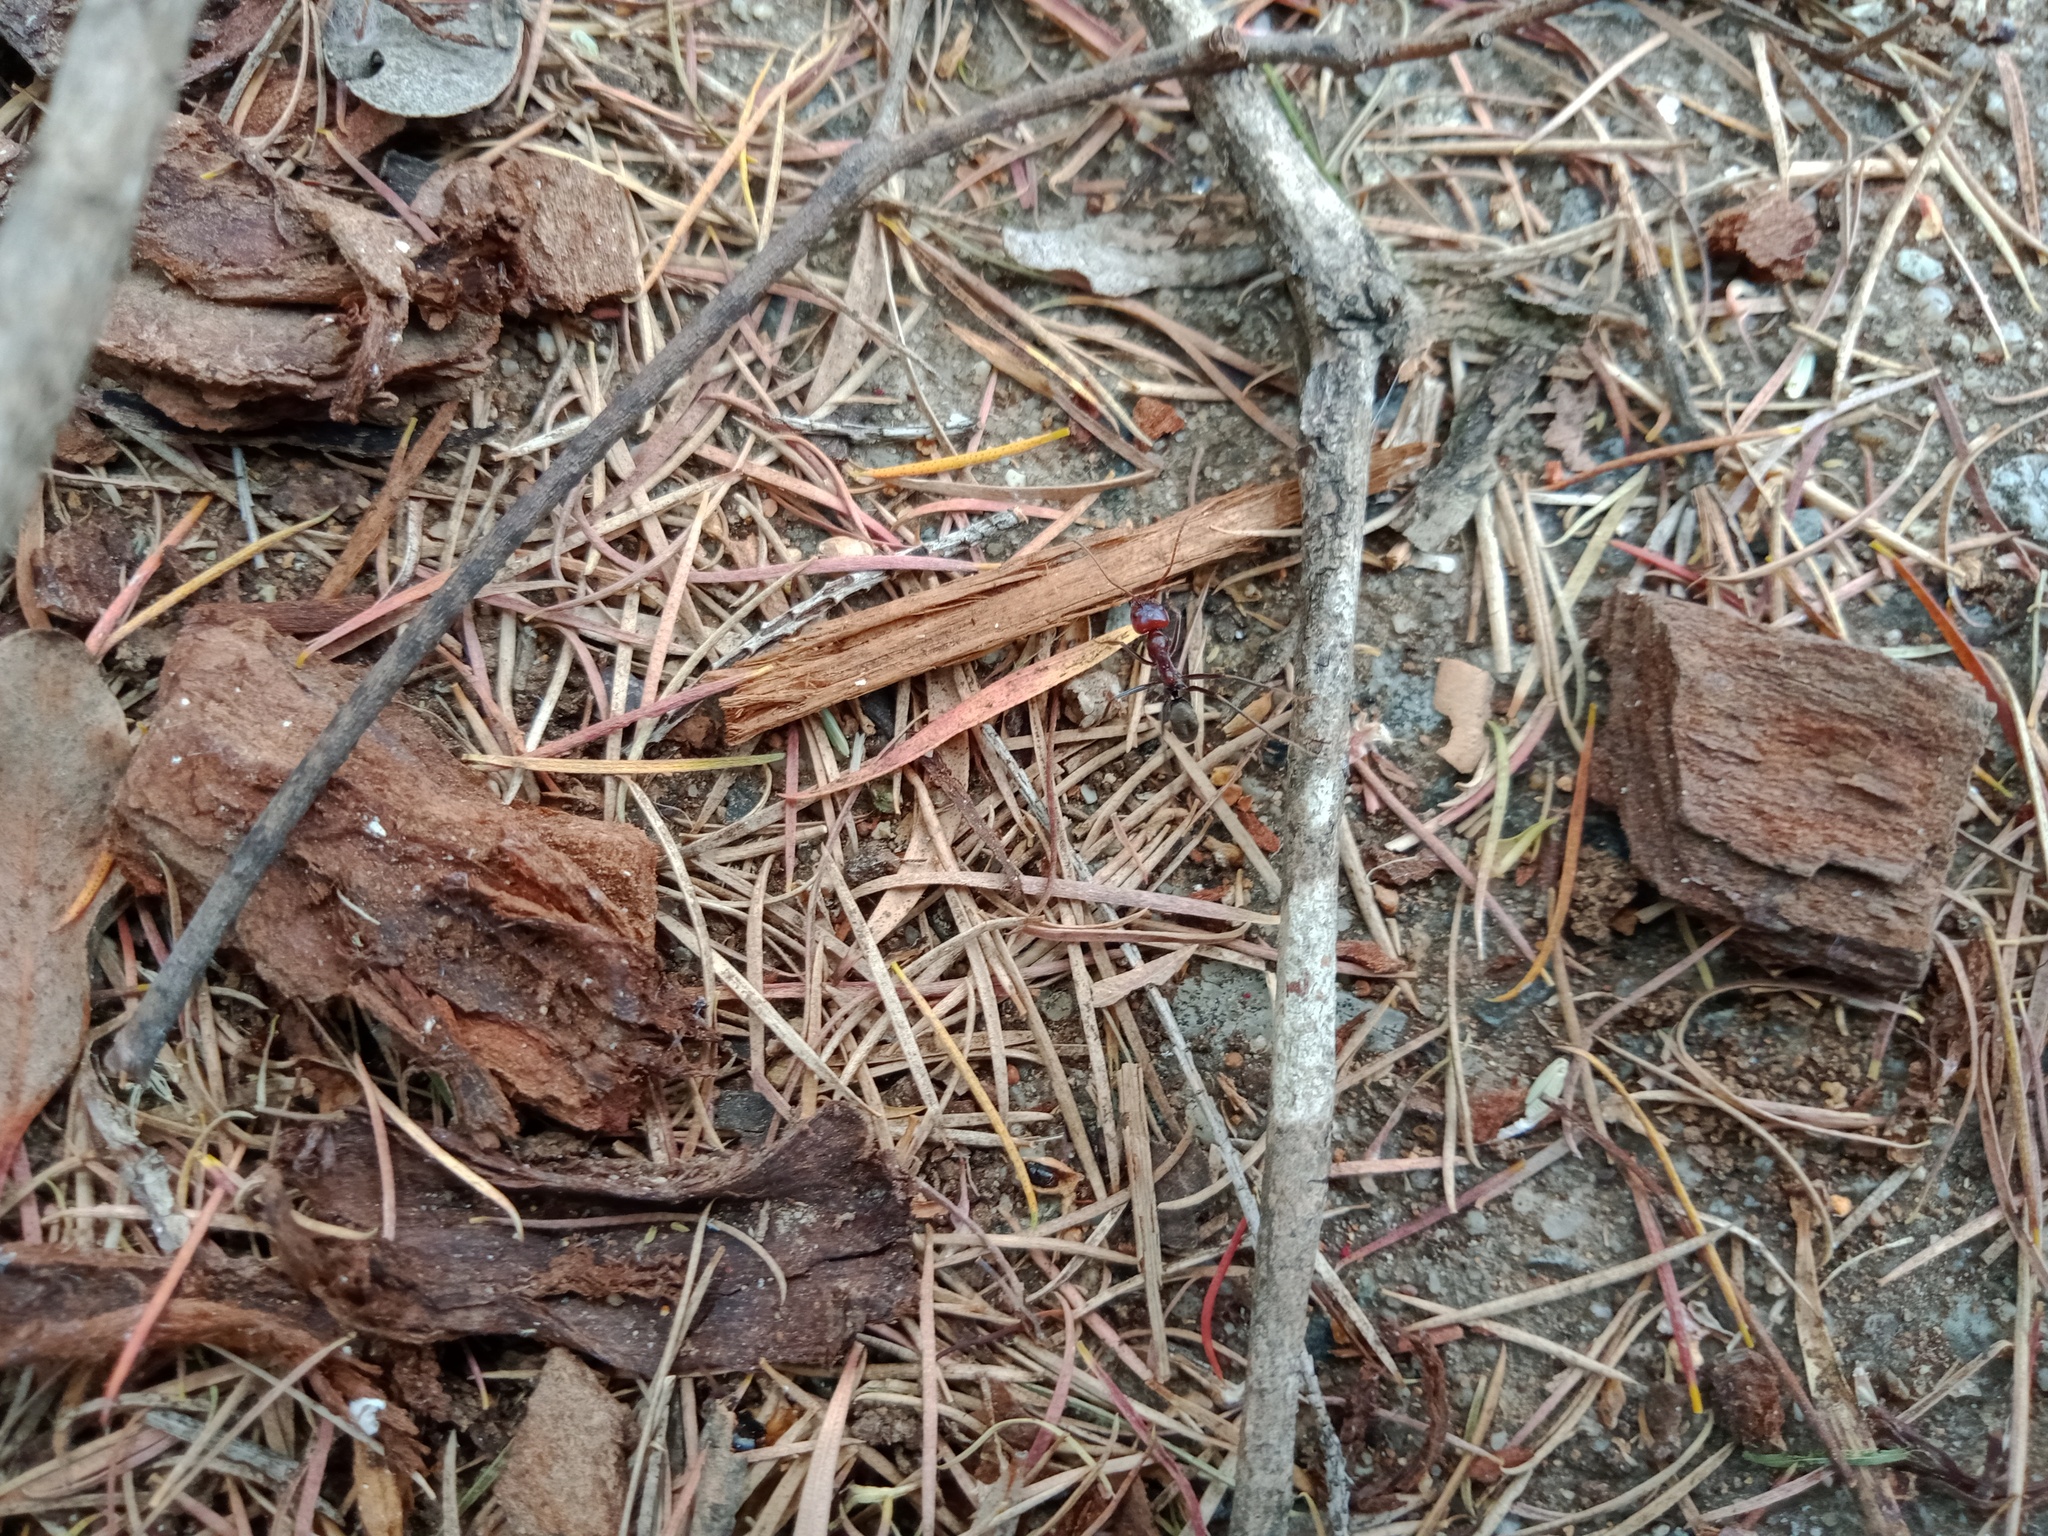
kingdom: Animalia
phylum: Arthropoda
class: Insecta
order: Hymenoptera
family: Formicidae
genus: Iridomyrmex
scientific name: Iridomyrmex purpureus
